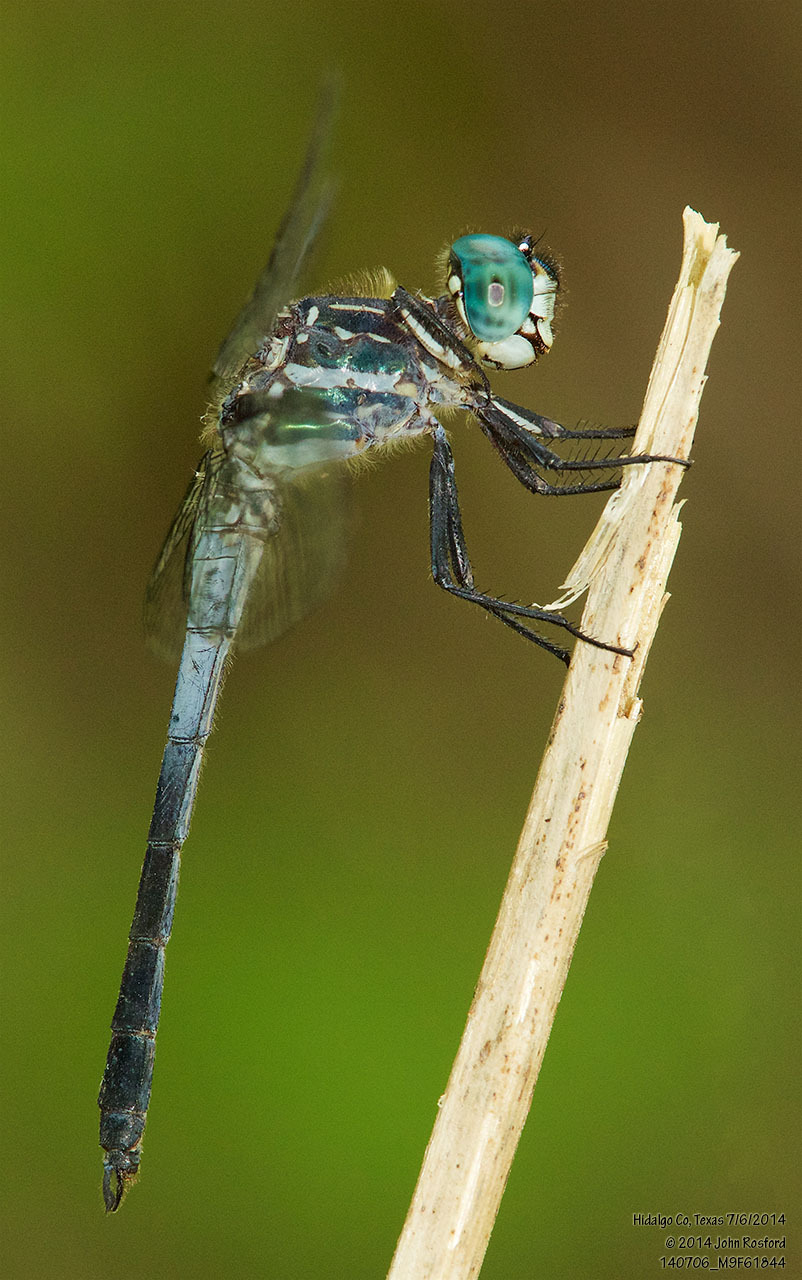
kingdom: Animalia
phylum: Arthropoda
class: Insecta
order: Odonata
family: Libellulidae
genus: Cannaphila
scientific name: Cannaphila insularis
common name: Gray-waisted skimmer
